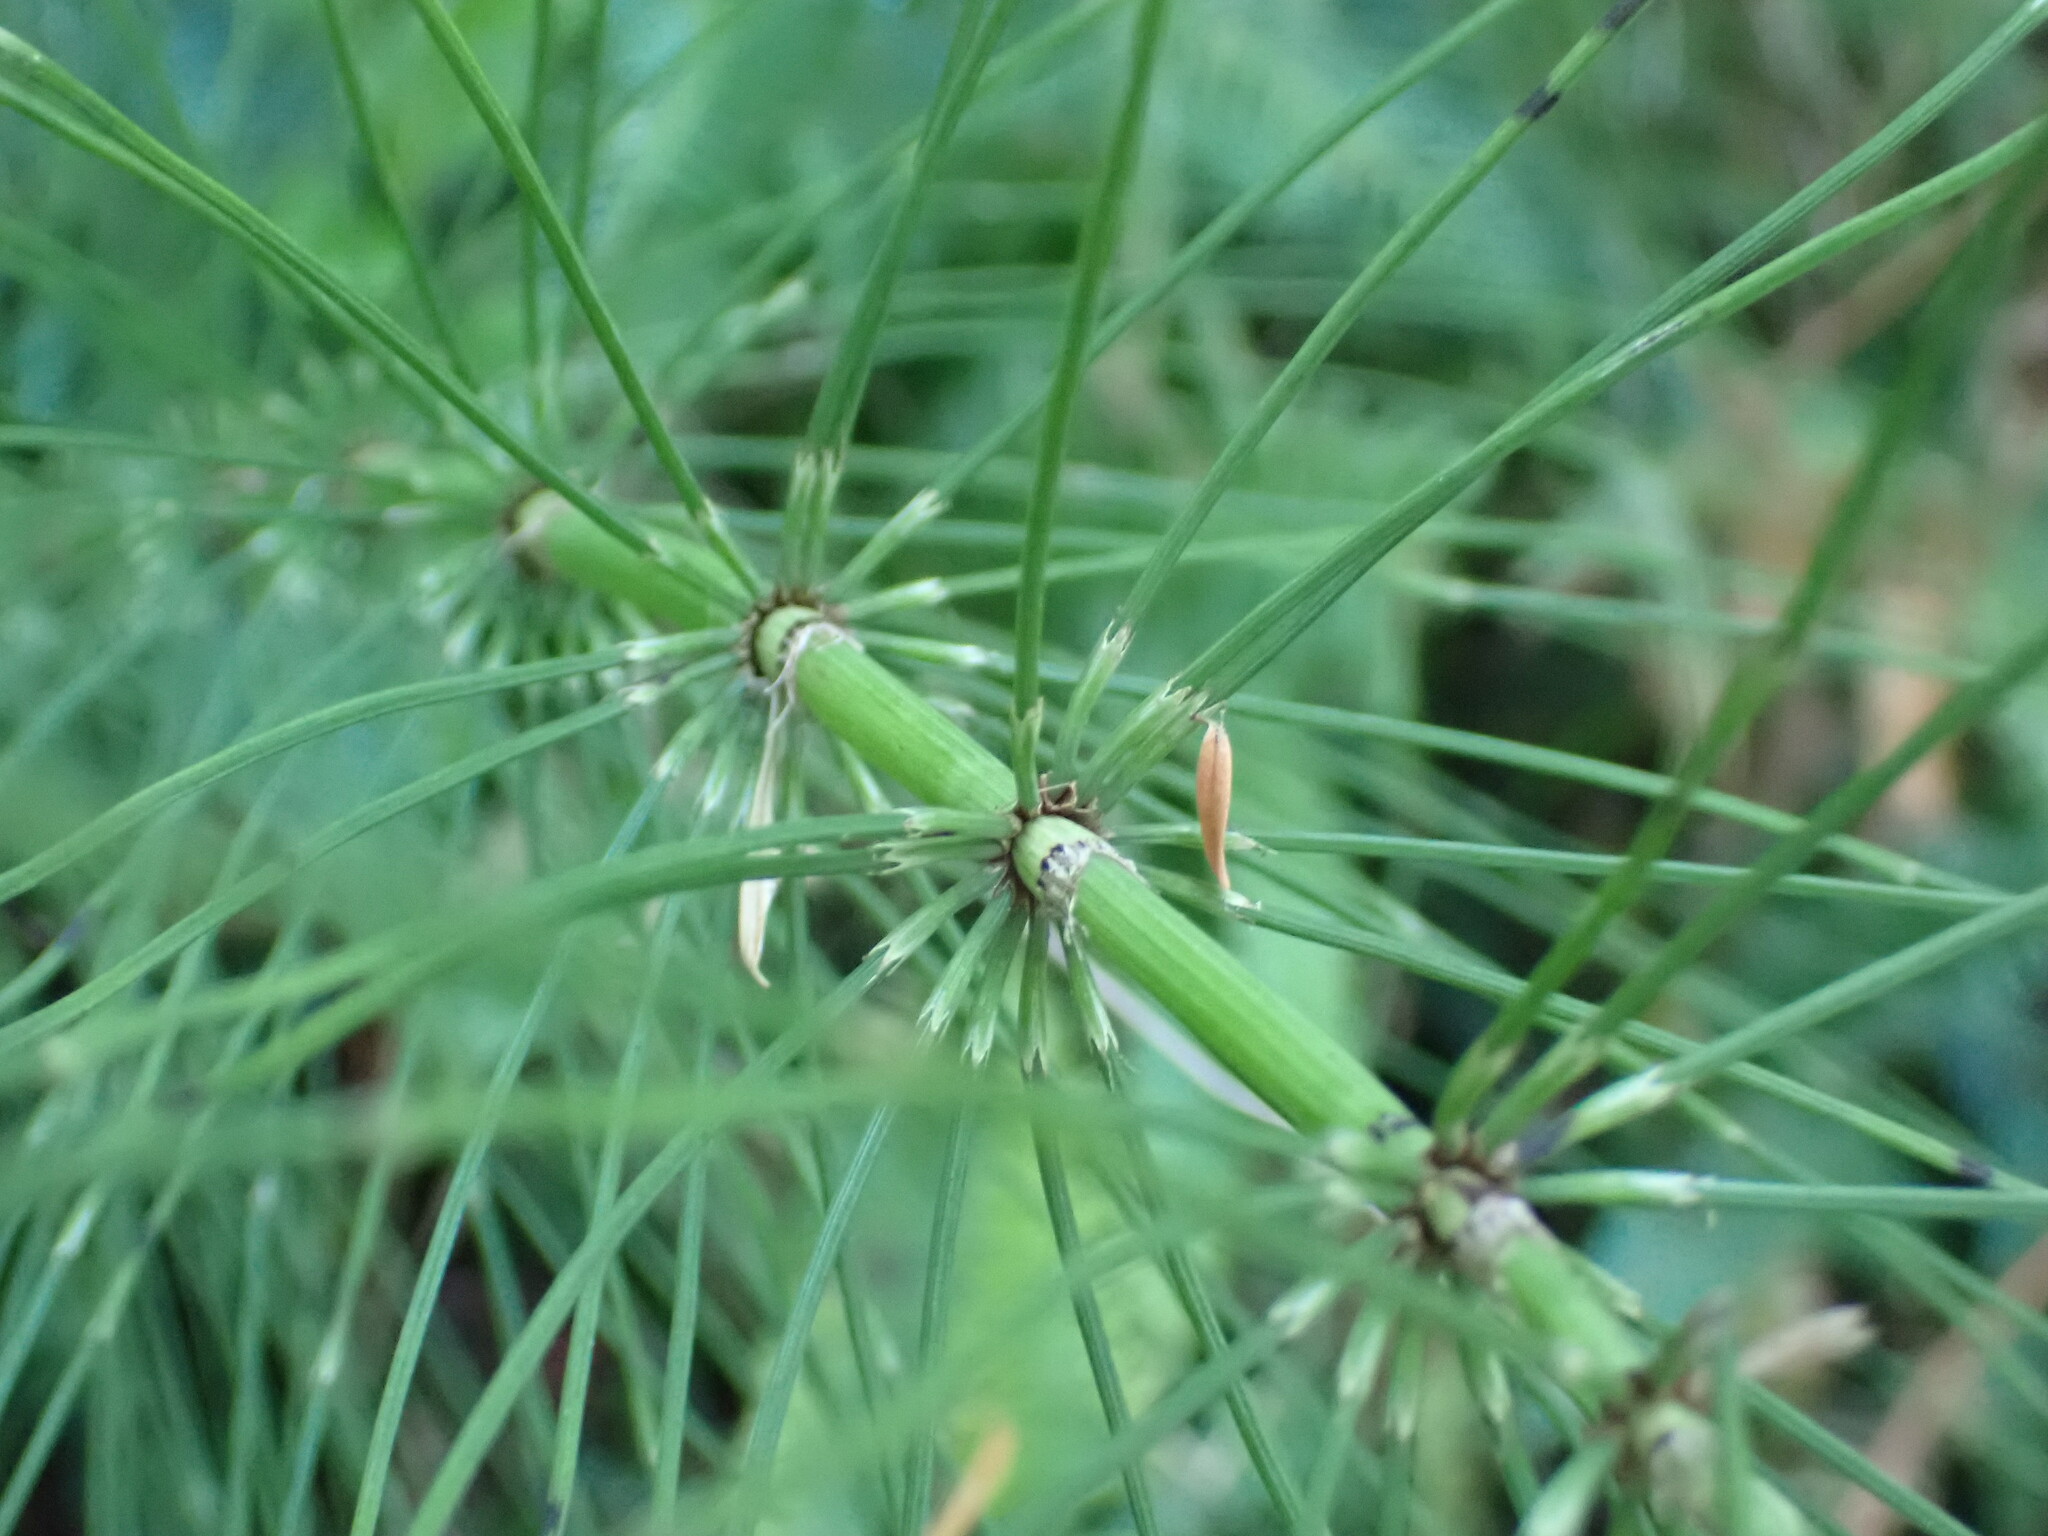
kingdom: Plantae
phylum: Tracheophyta
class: Polypodiopsida
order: Equisetales
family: Equisetaceae
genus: Equisetum
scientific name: Equisetum braunii
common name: Braun's horsetail
